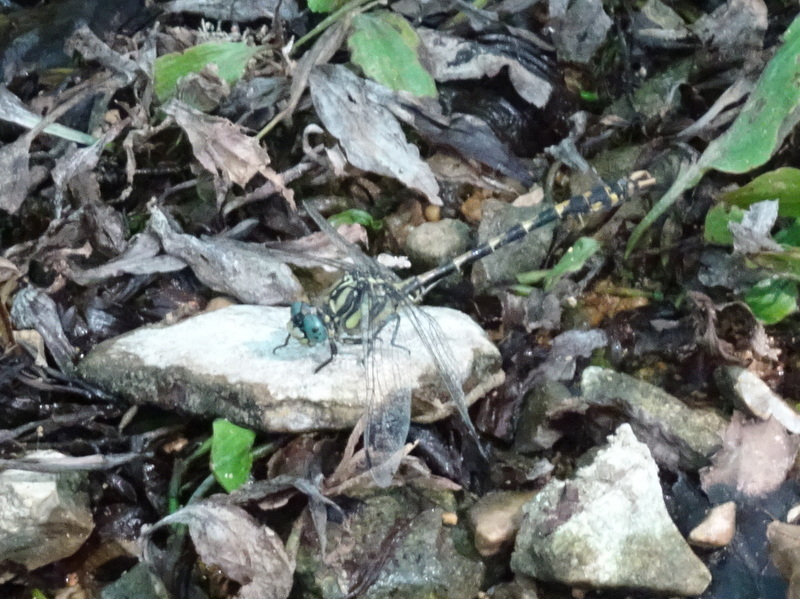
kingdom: Animalia
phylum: Arthropoda
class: Insecta
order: Odonata
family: Gomphidae
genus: Onychogomphus
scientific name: Onychogomphus uncatus
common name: Large pincertail
